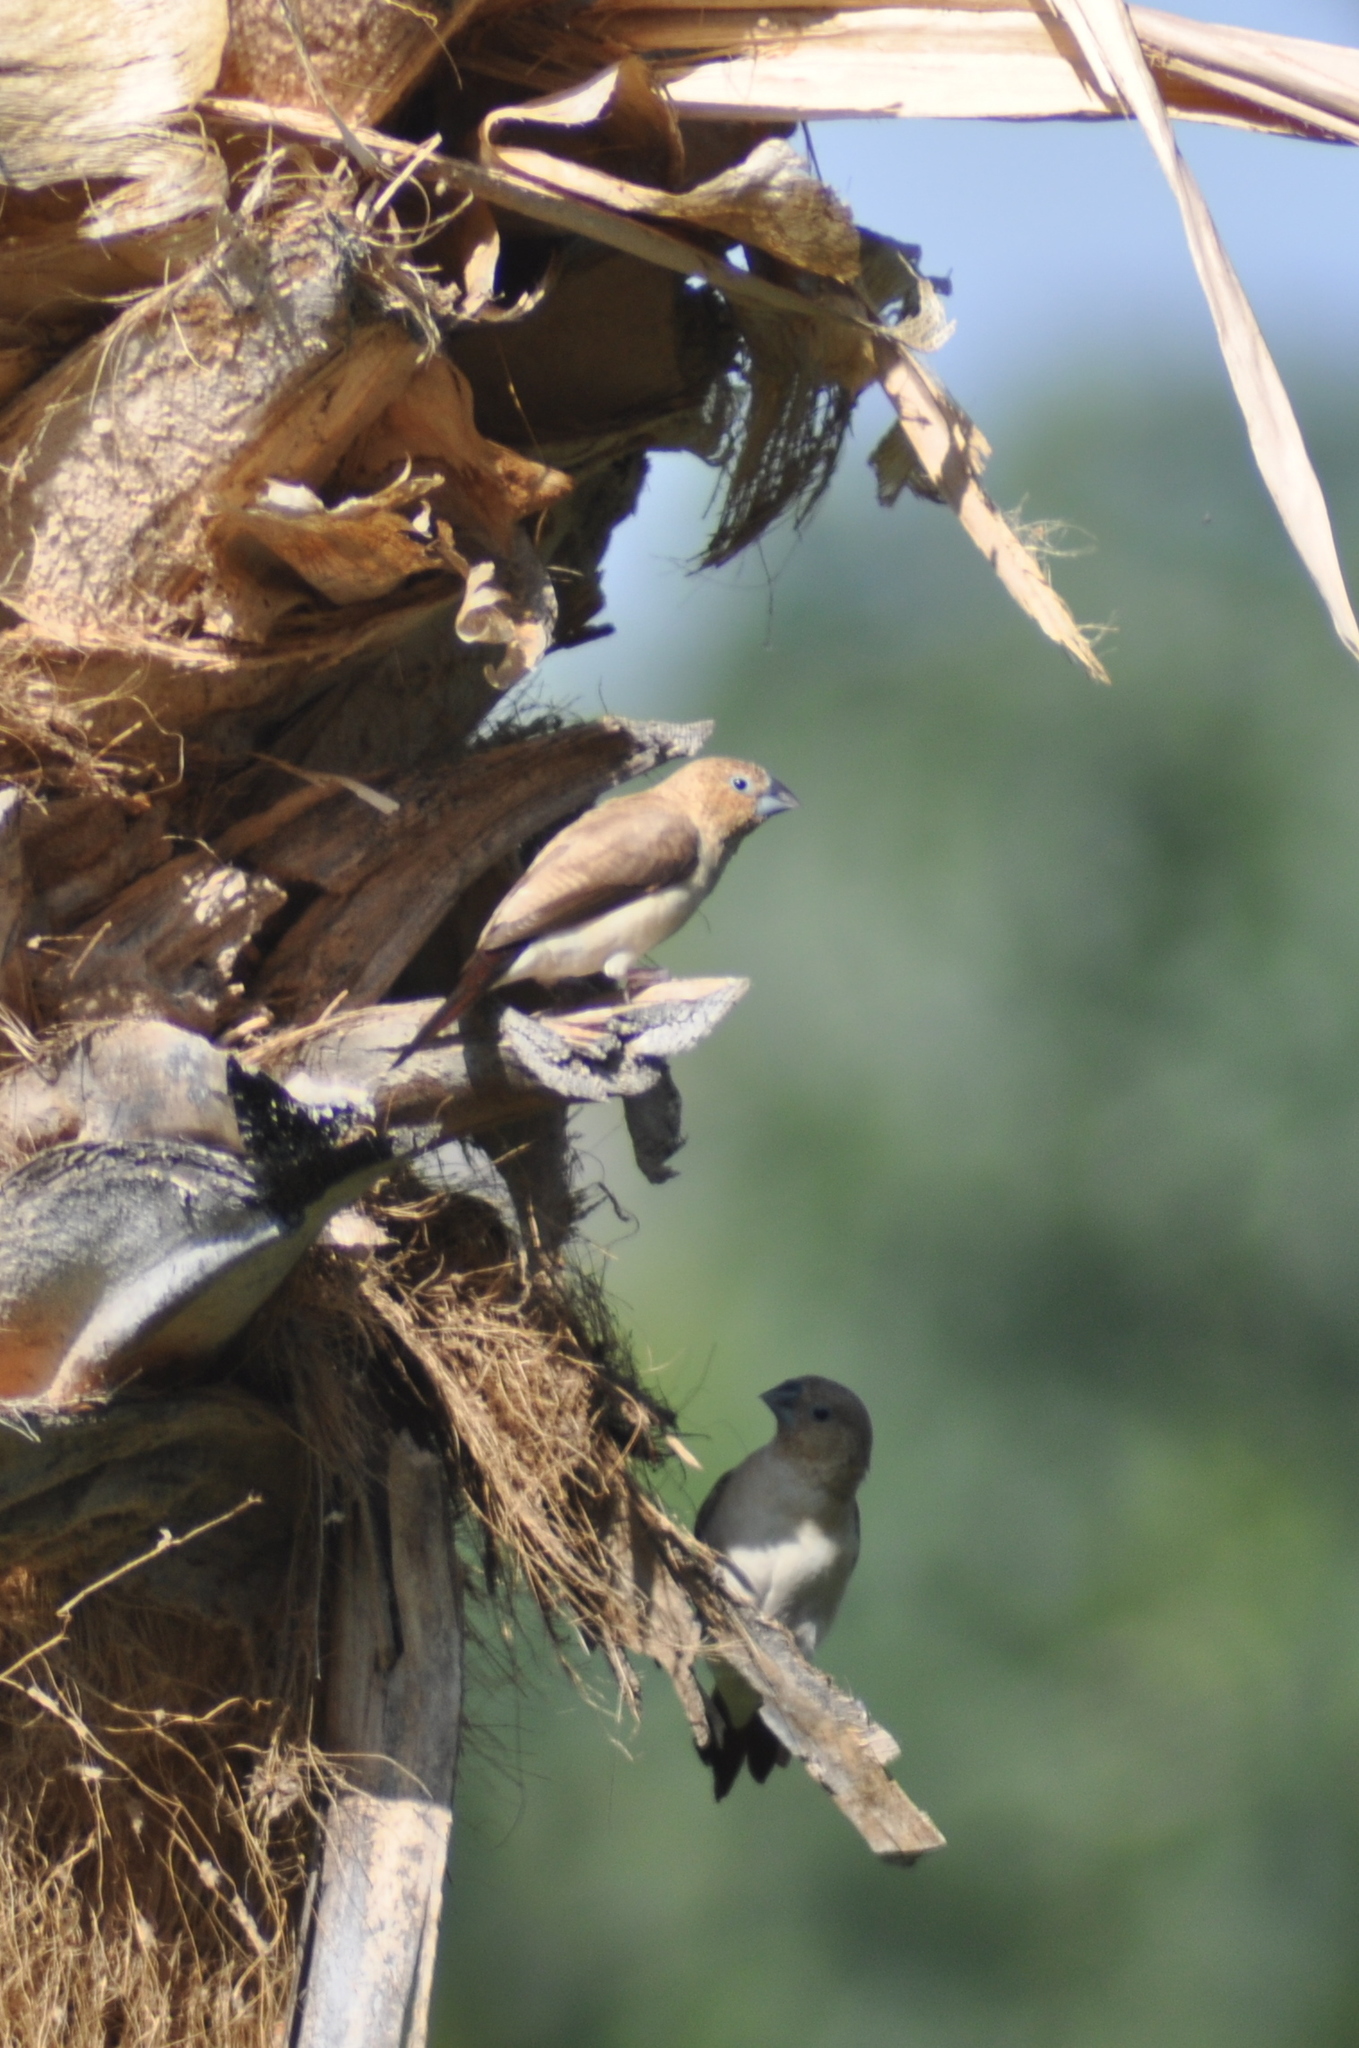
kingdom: Animalia
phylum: Chordata
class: Aves
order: Passeriformes
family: Estrildidae
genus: Euodice
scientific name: Euodice cantans
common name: African silverbill
